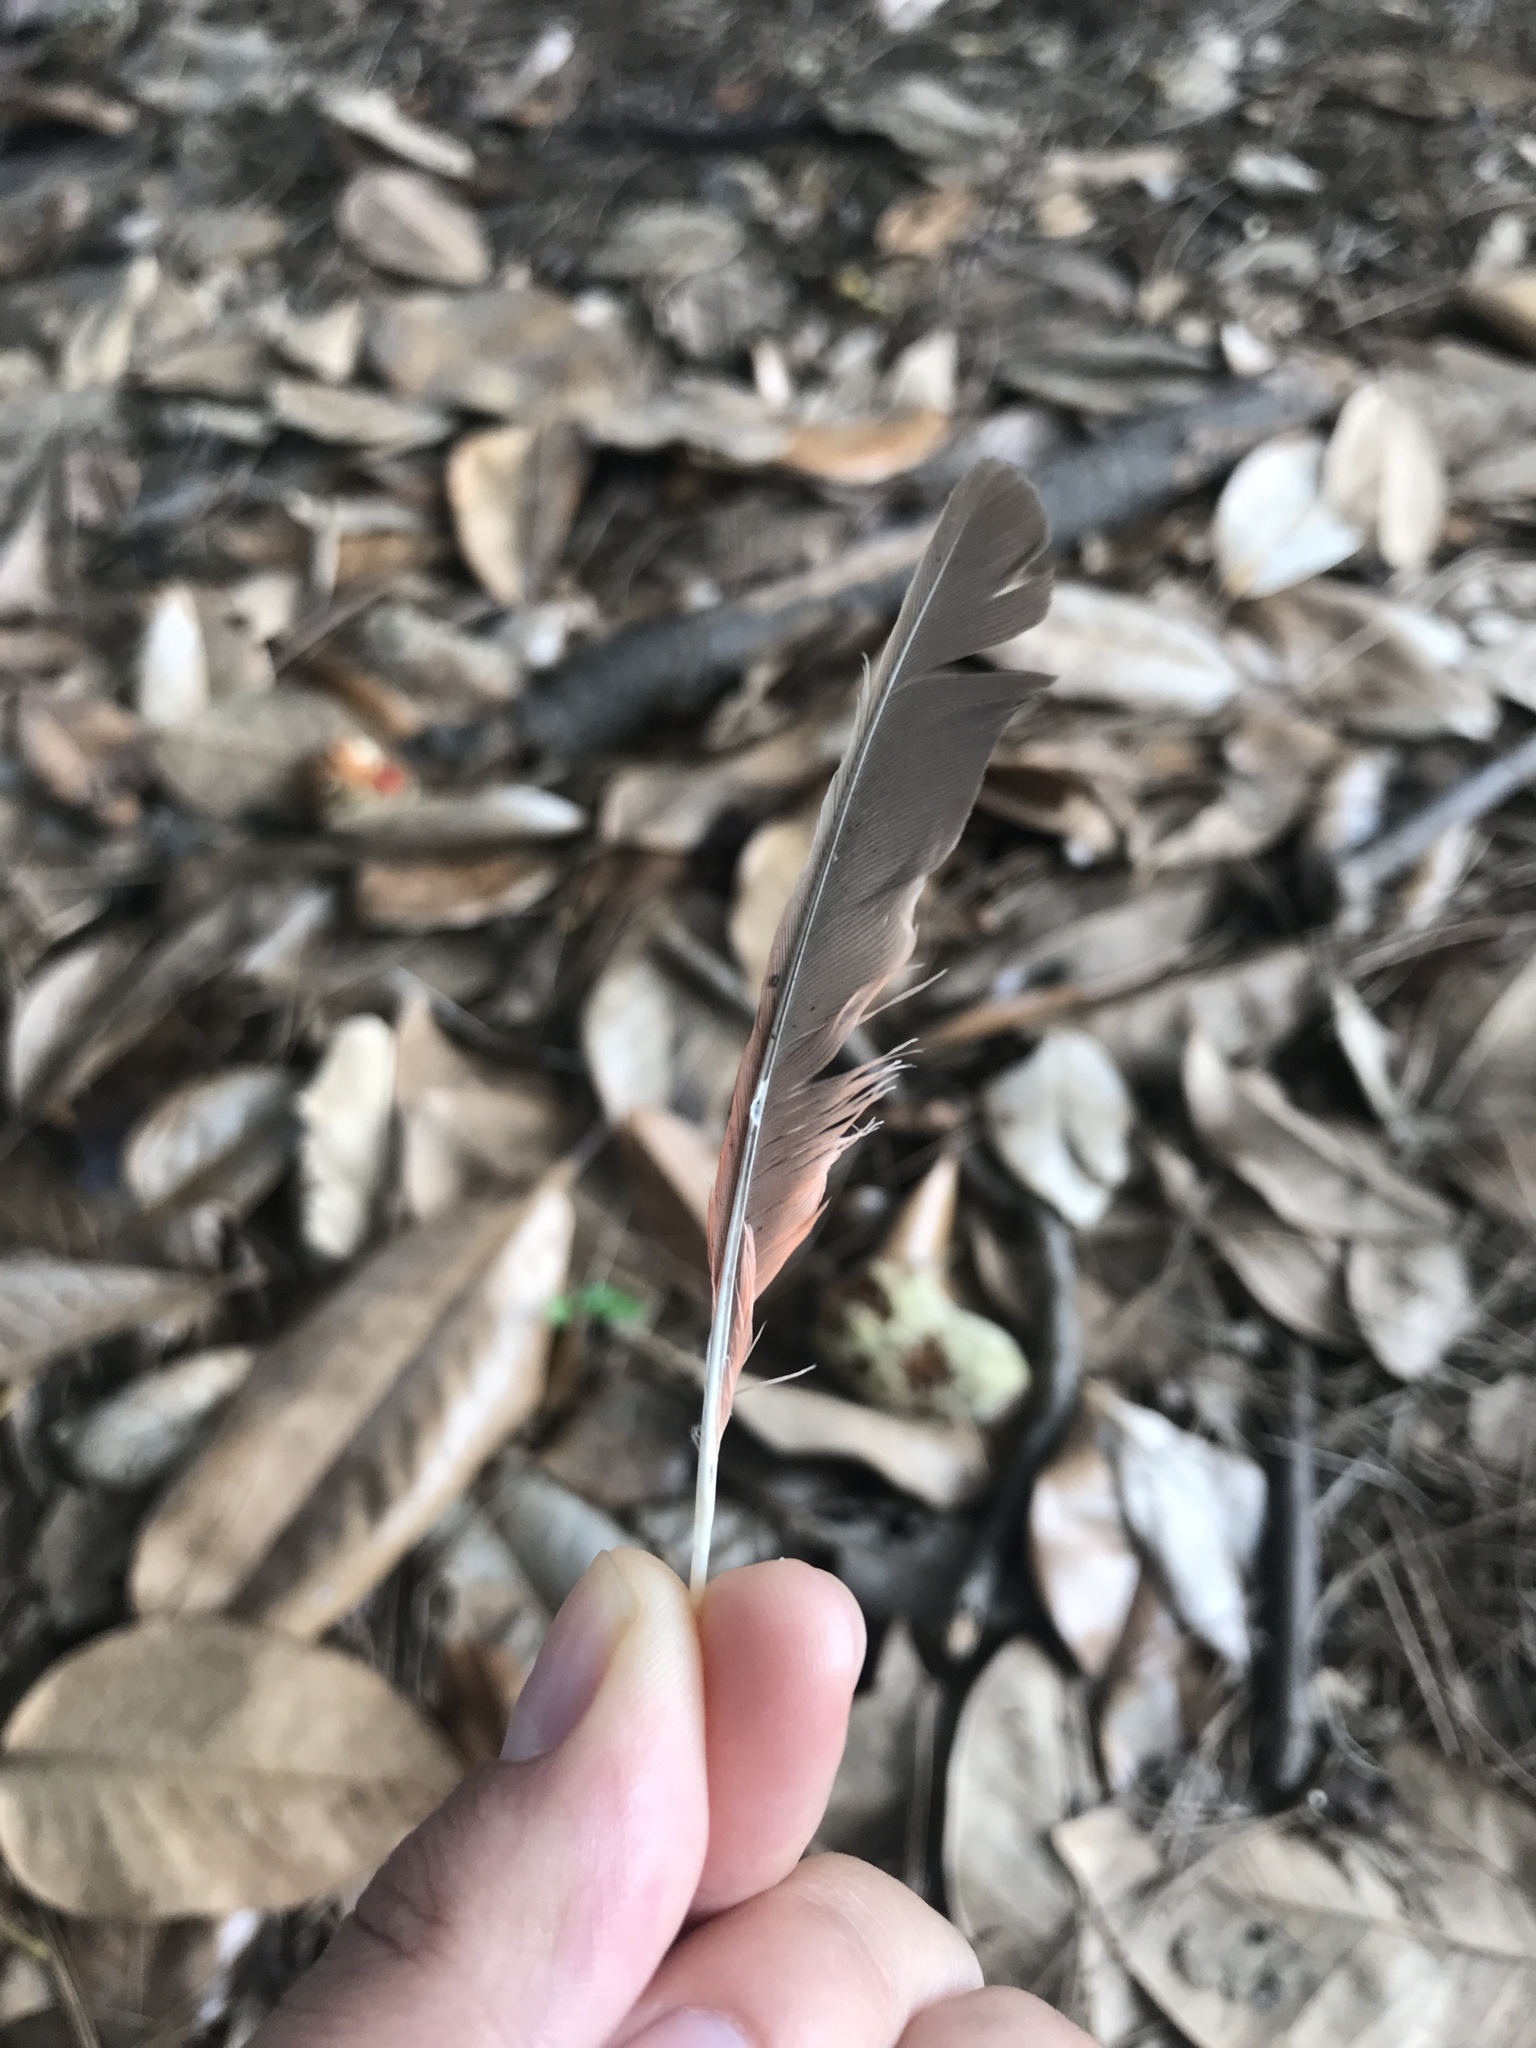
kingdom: Animalia
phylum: Chordata
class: Aves
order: Passeriformes
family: Cardinalidae
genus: Cardinalis
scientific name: Cardinalis cardinalis
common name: Northern cardinal
